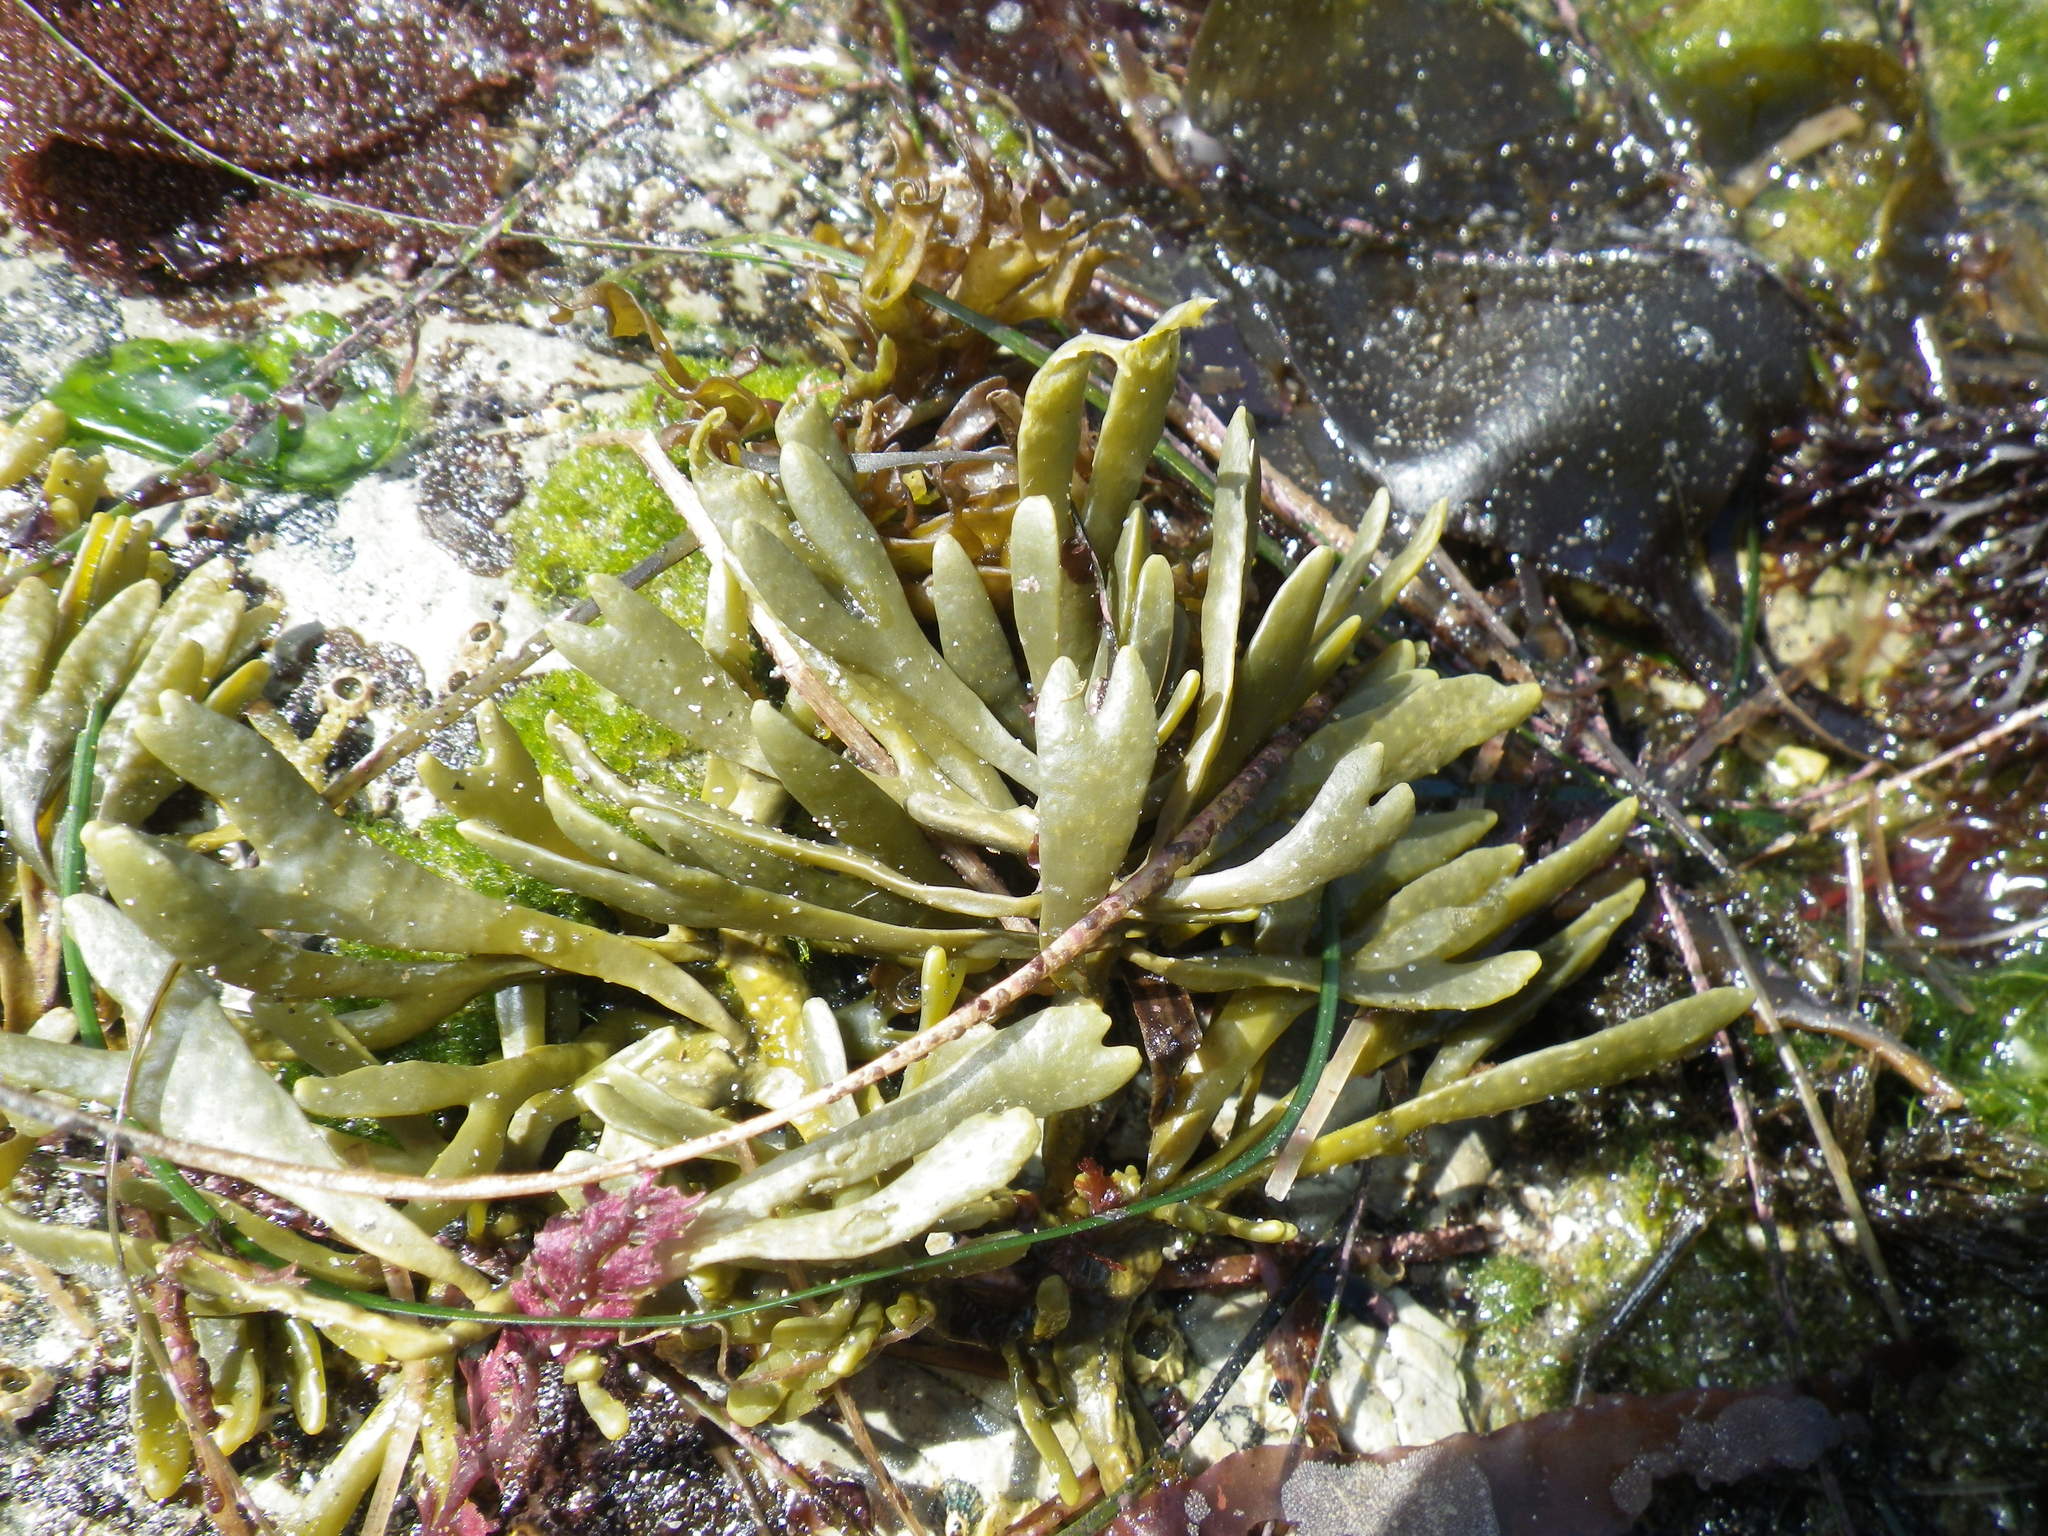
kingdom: Chromista
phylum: Ochrophyta
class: Phaeophyceae
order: Fucales
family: Fucaceae
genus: Silvetia
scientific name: Silvetia
